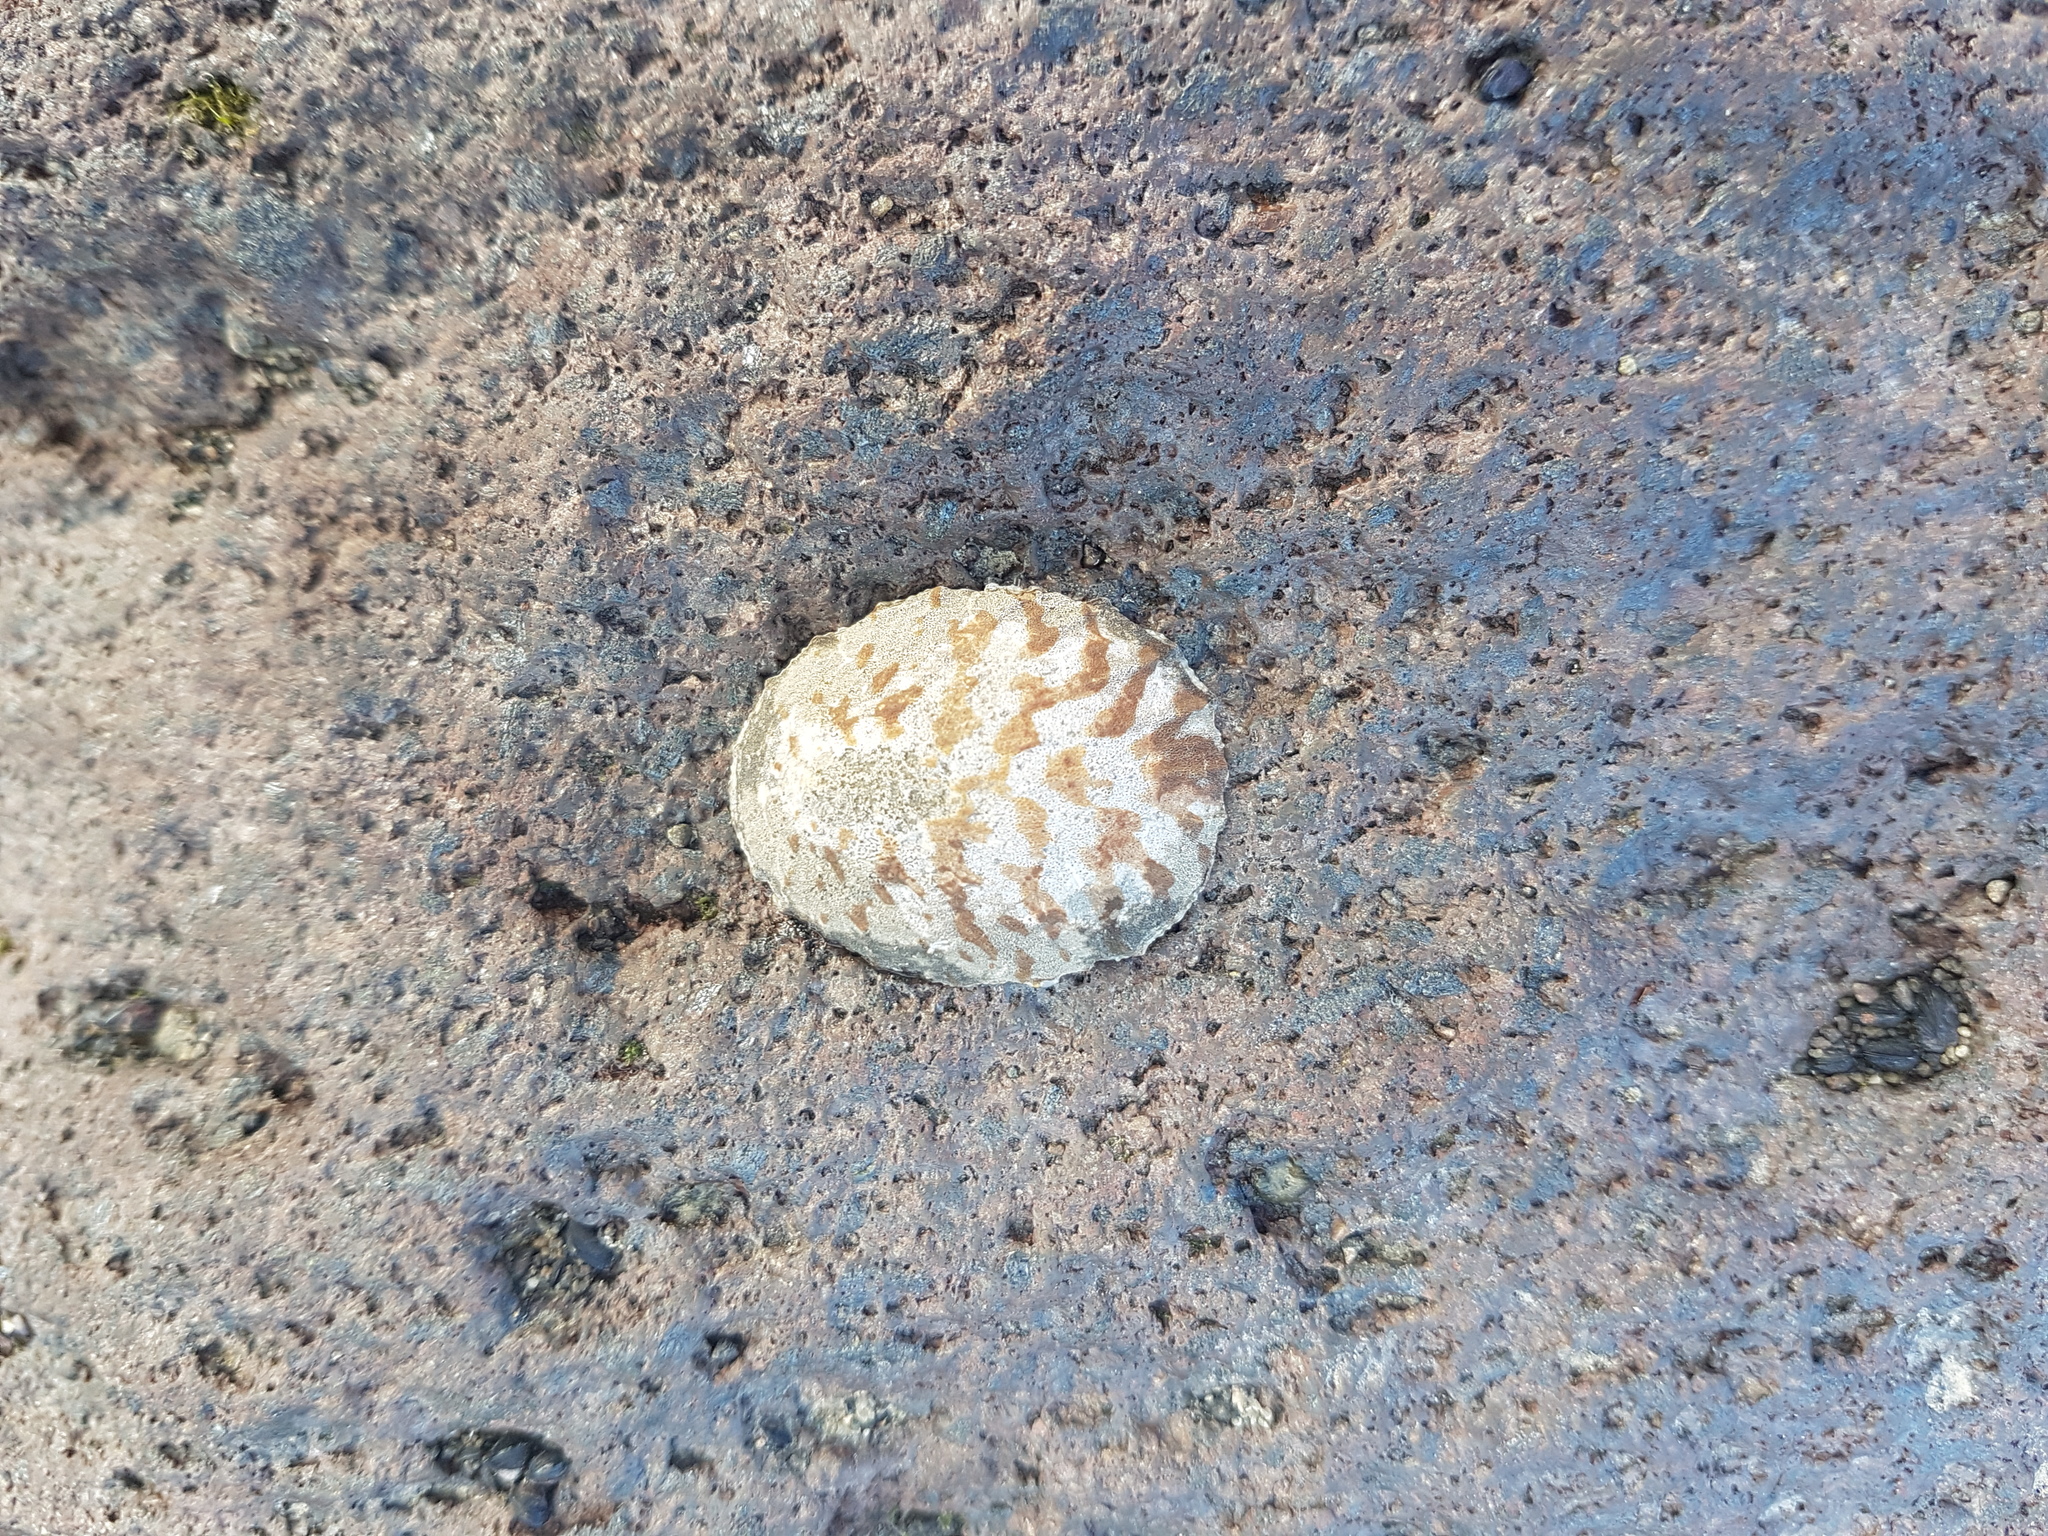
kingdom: Animalia
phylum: Mollusca
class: Gastropoda
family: Nacellidae
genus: Cellana
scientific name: Cellana radians
